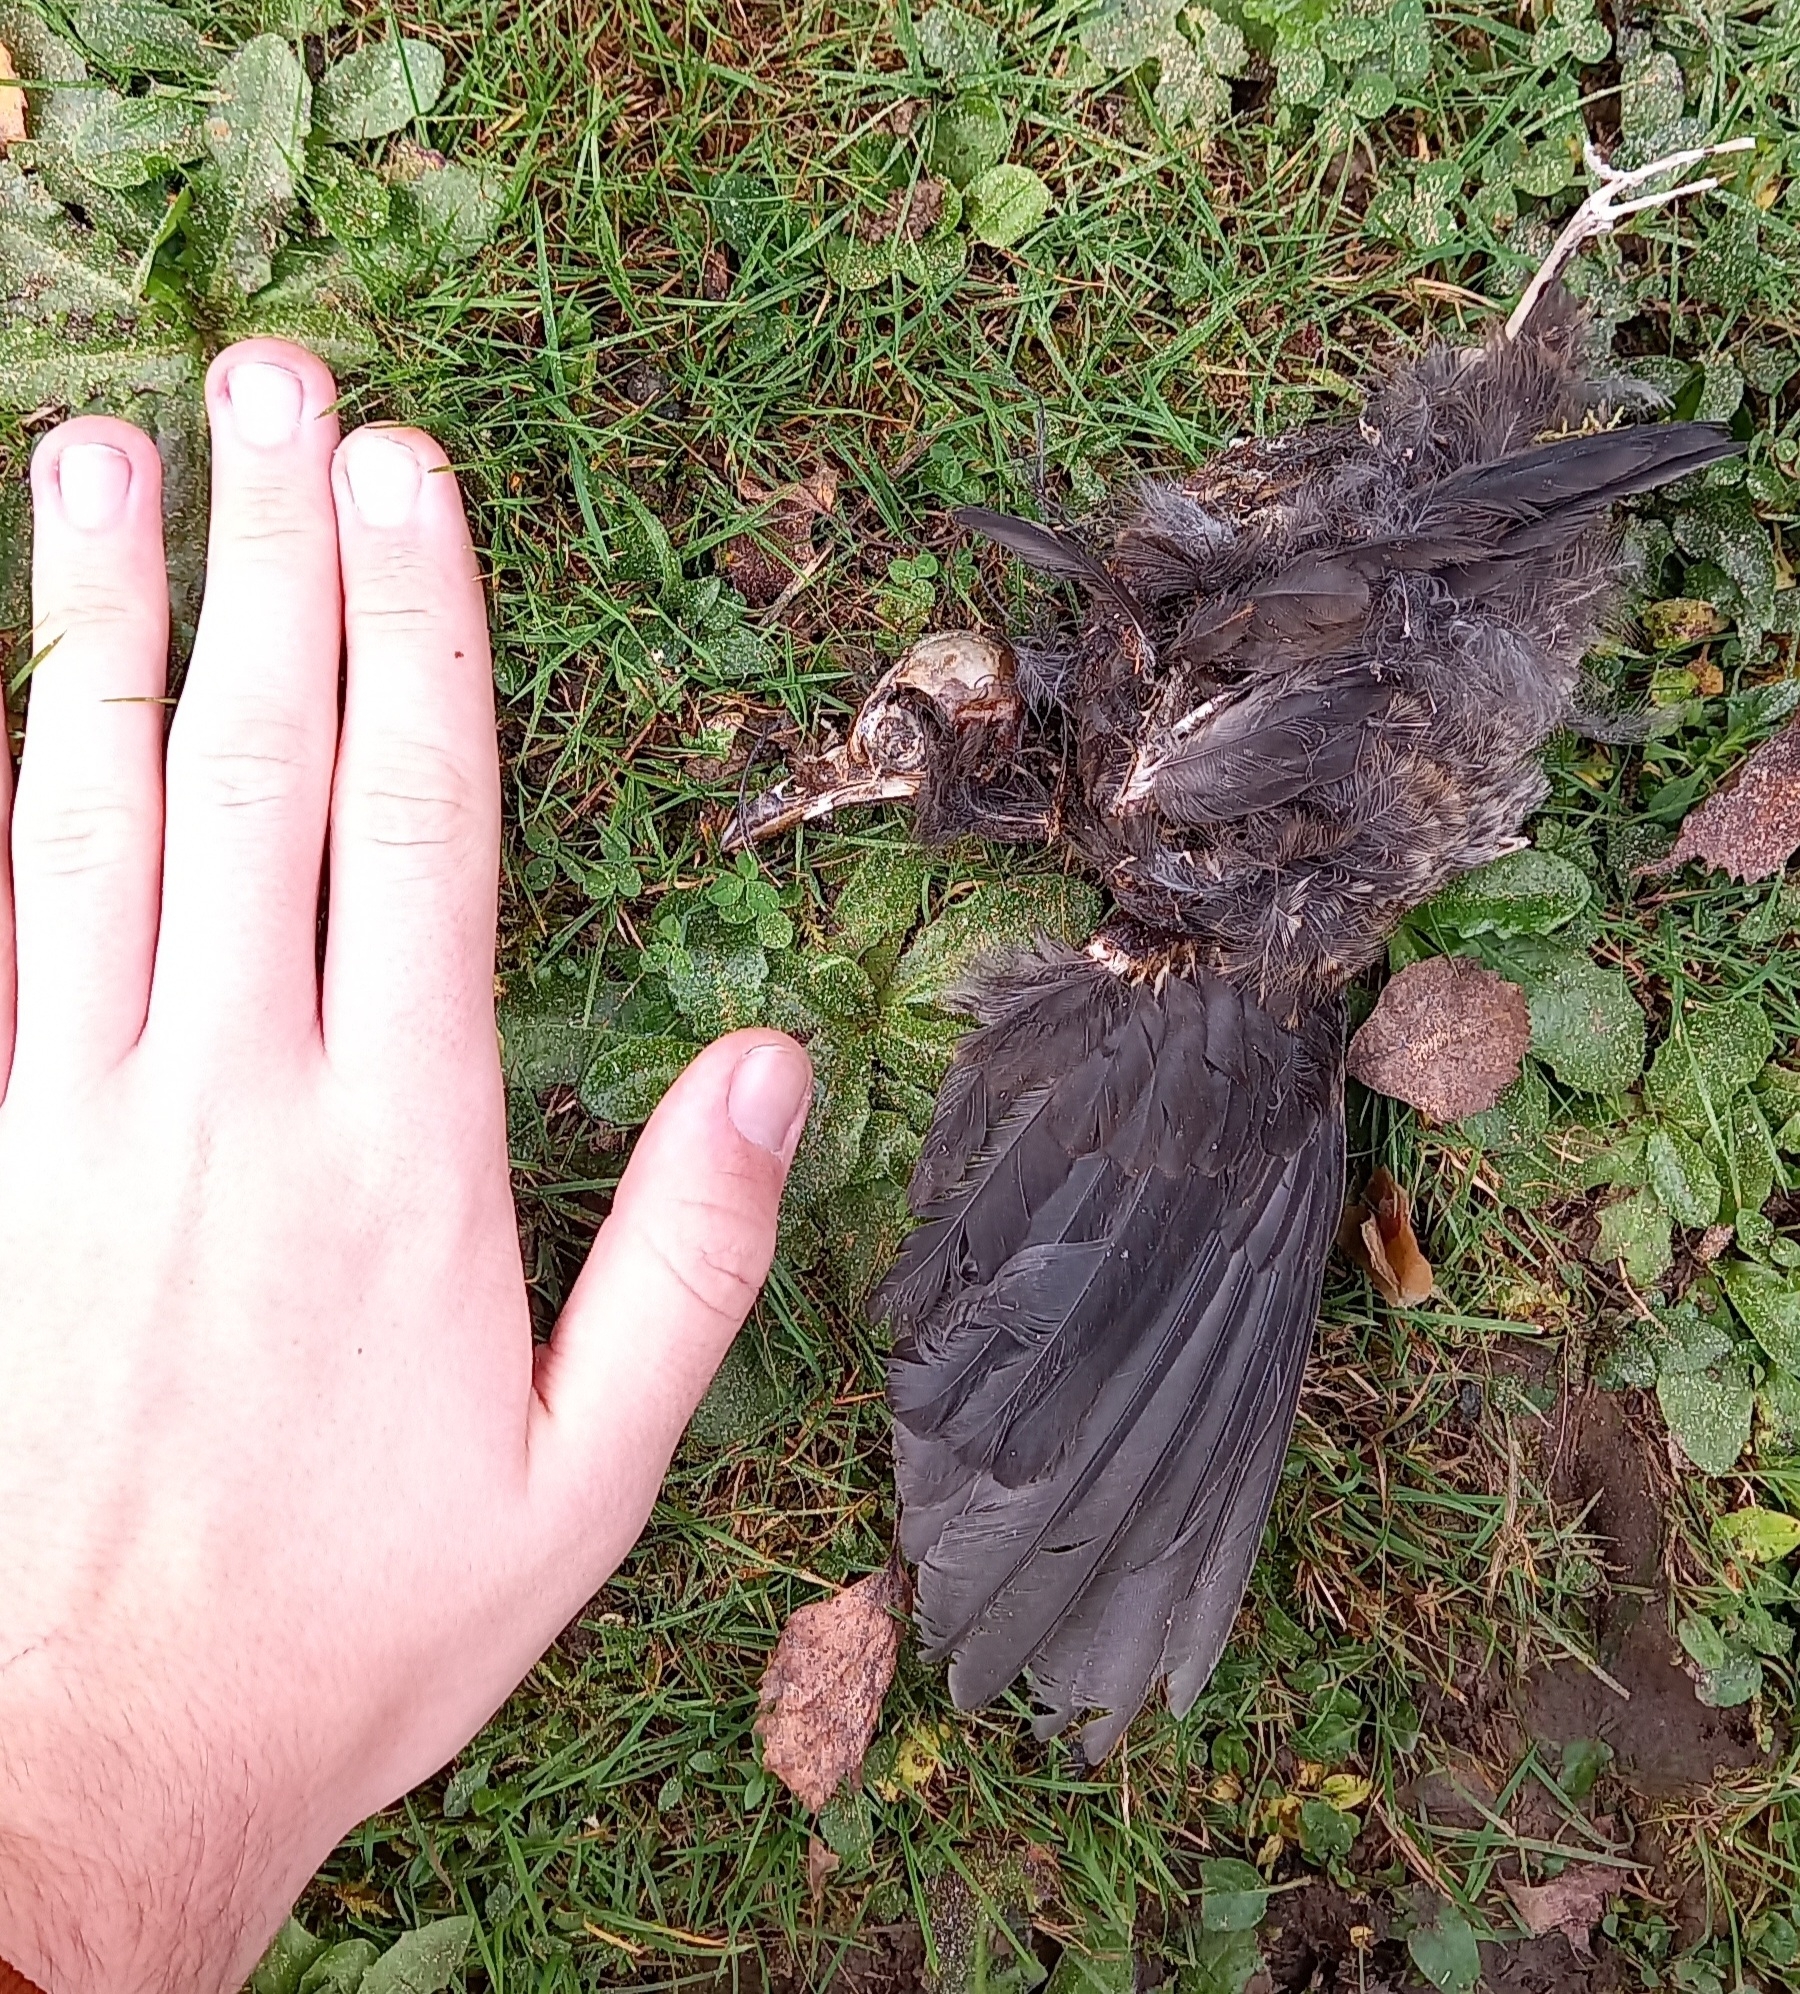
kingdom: Animalia
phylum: Chordata
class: Aves
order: Passeriformes
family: Turdidae
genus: Turdus
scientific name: Turdus merula
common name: Common blackbird
